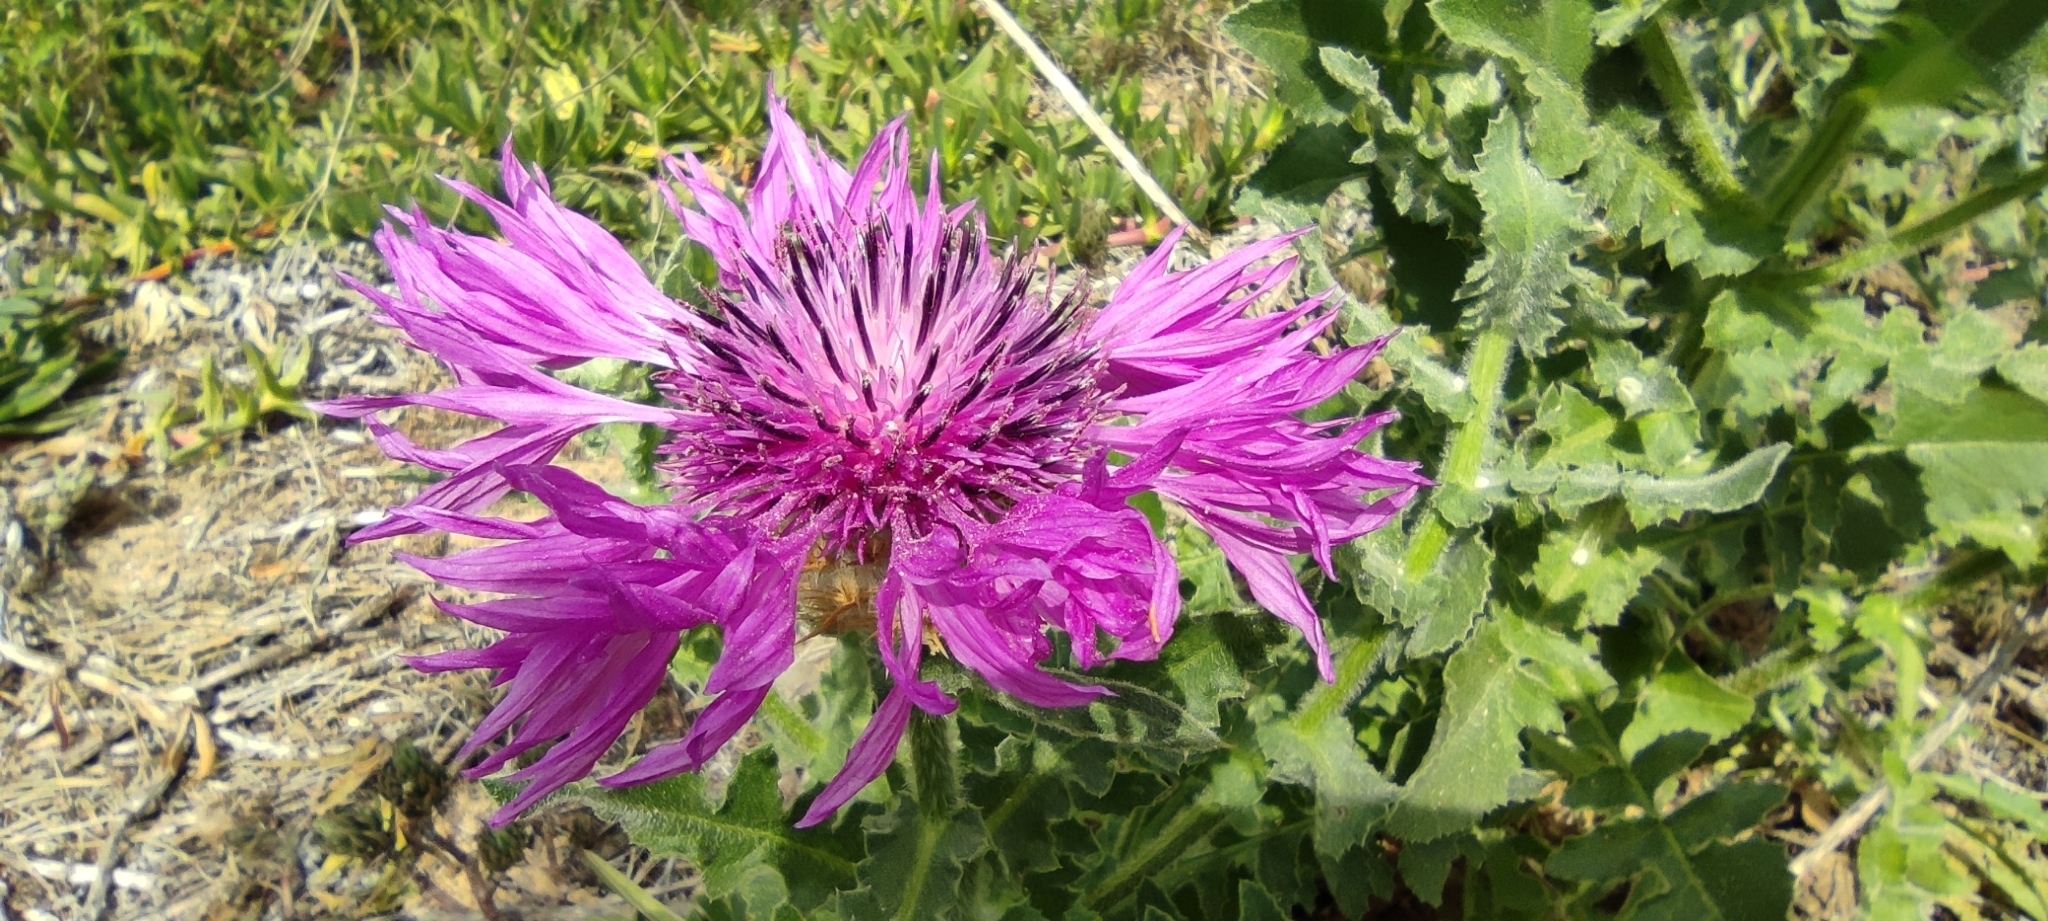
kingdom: Plantae
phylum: Tracheophyta
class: Magnoliopsida
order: Asterales
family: Asteraceae
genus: Centaurea
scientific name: Centaurea polyacantha
